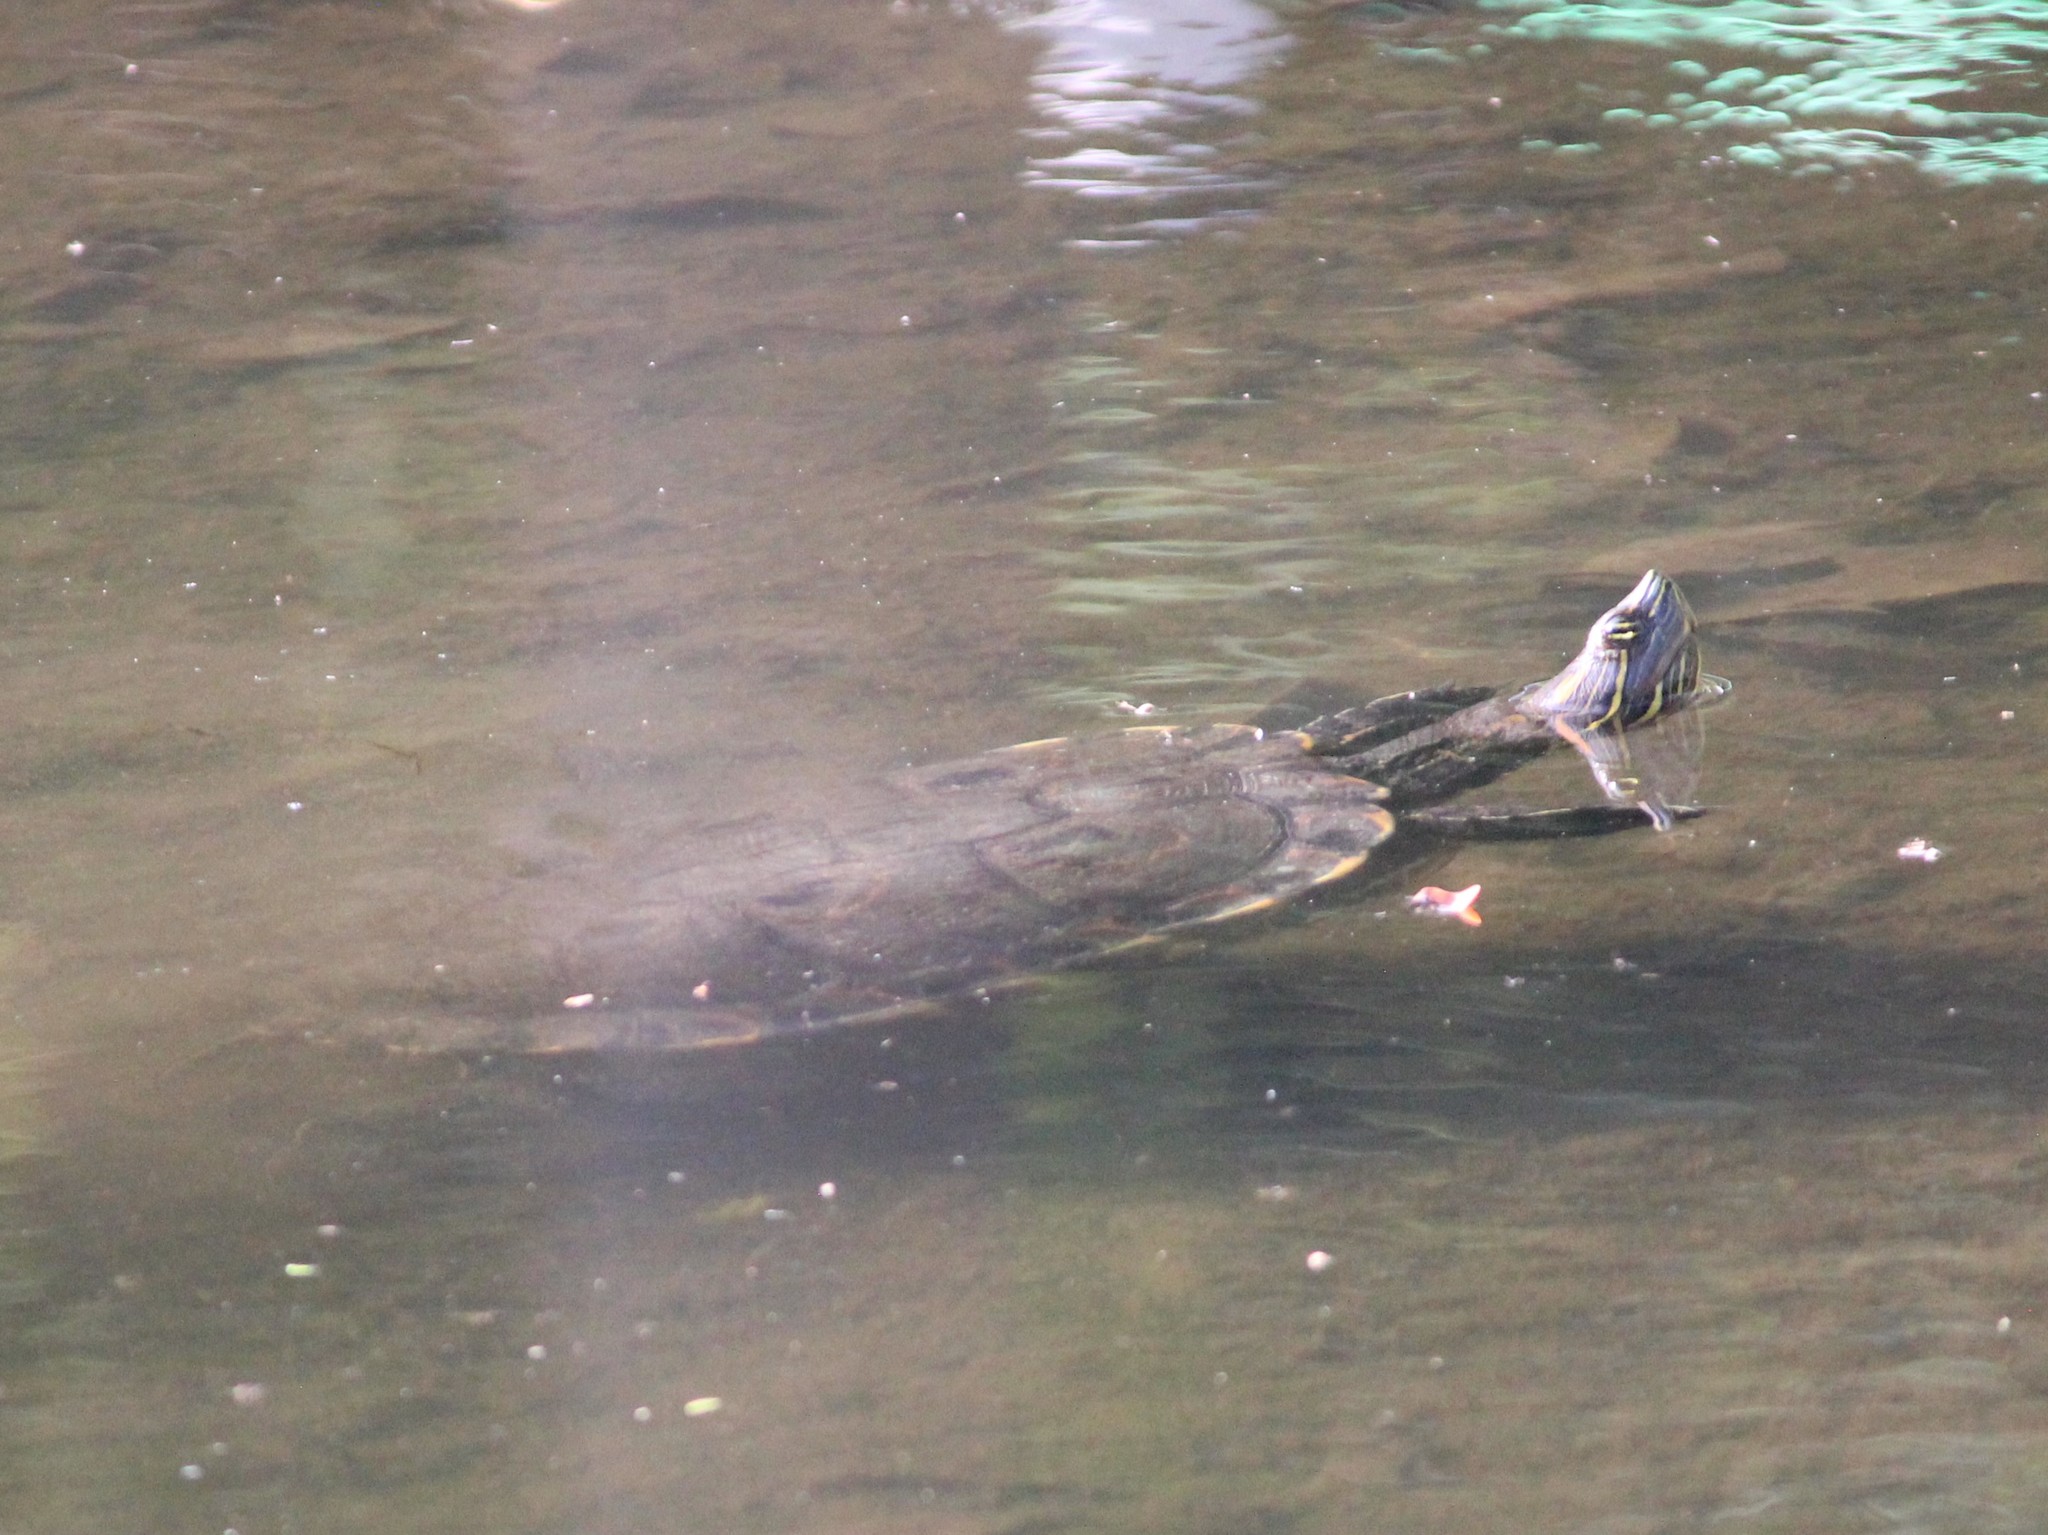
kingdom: Animalia
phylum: Chordata
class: Testudines
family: Emydidae
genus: Trachemys
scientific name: Trachemys grayi
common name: Gray's slider
